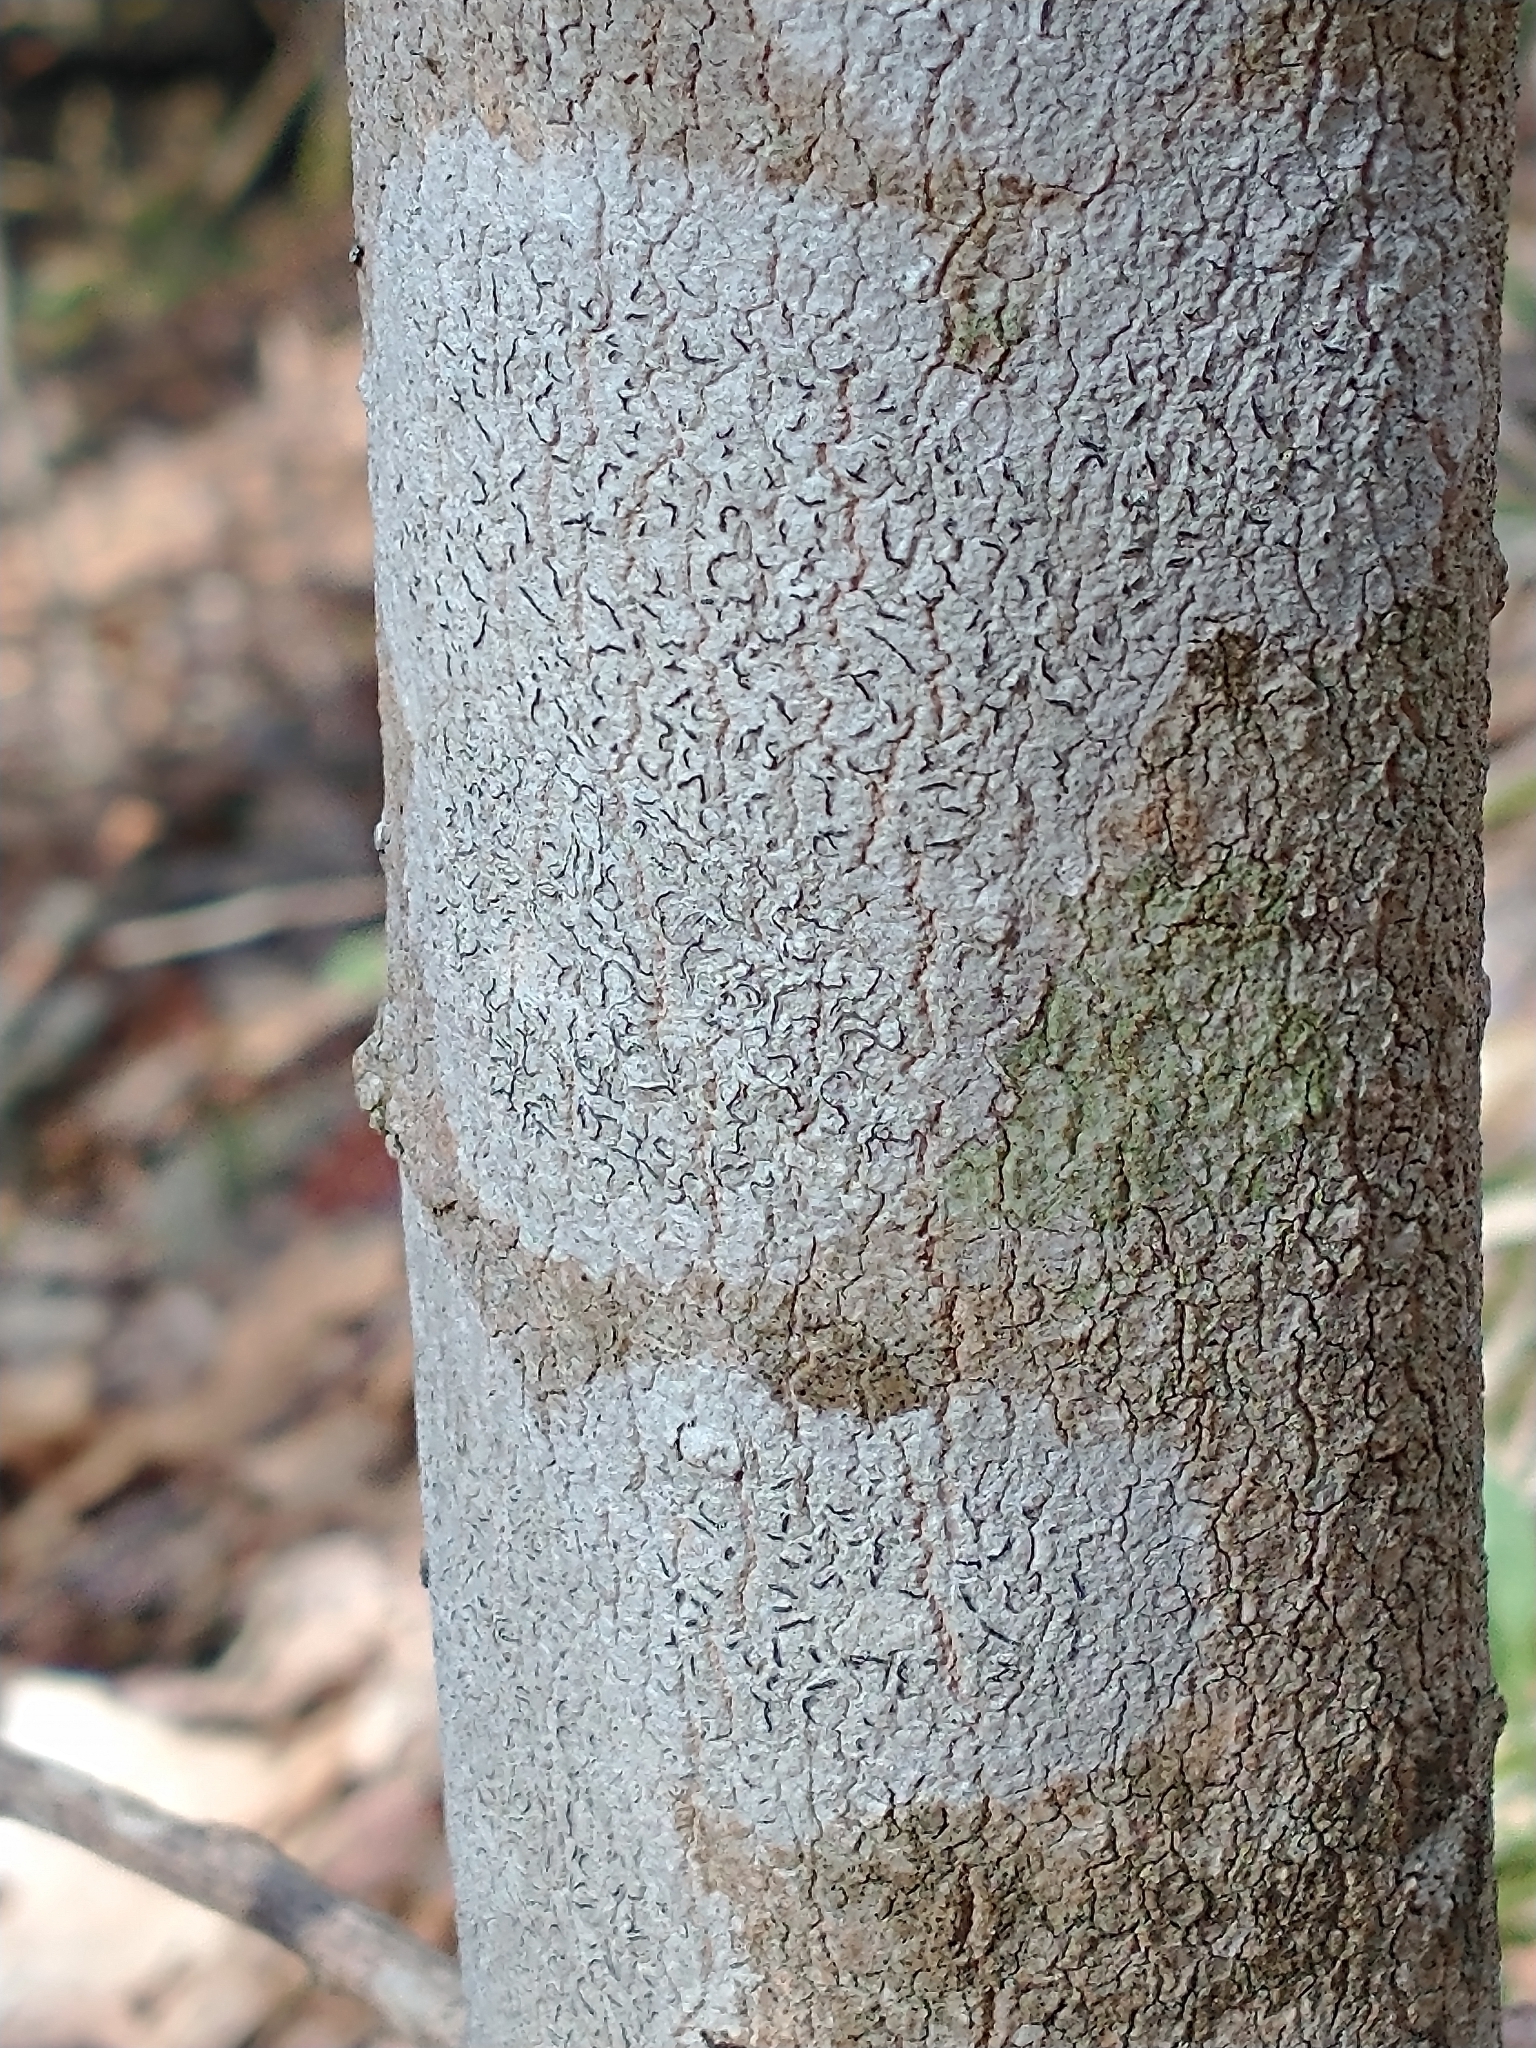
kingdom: Fungi
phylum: Ascomycota
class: Lecanoromycetes
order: Ostropales
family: Graphidaceae
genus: Graphis
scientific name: Graphis scripta
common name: Script lichen
